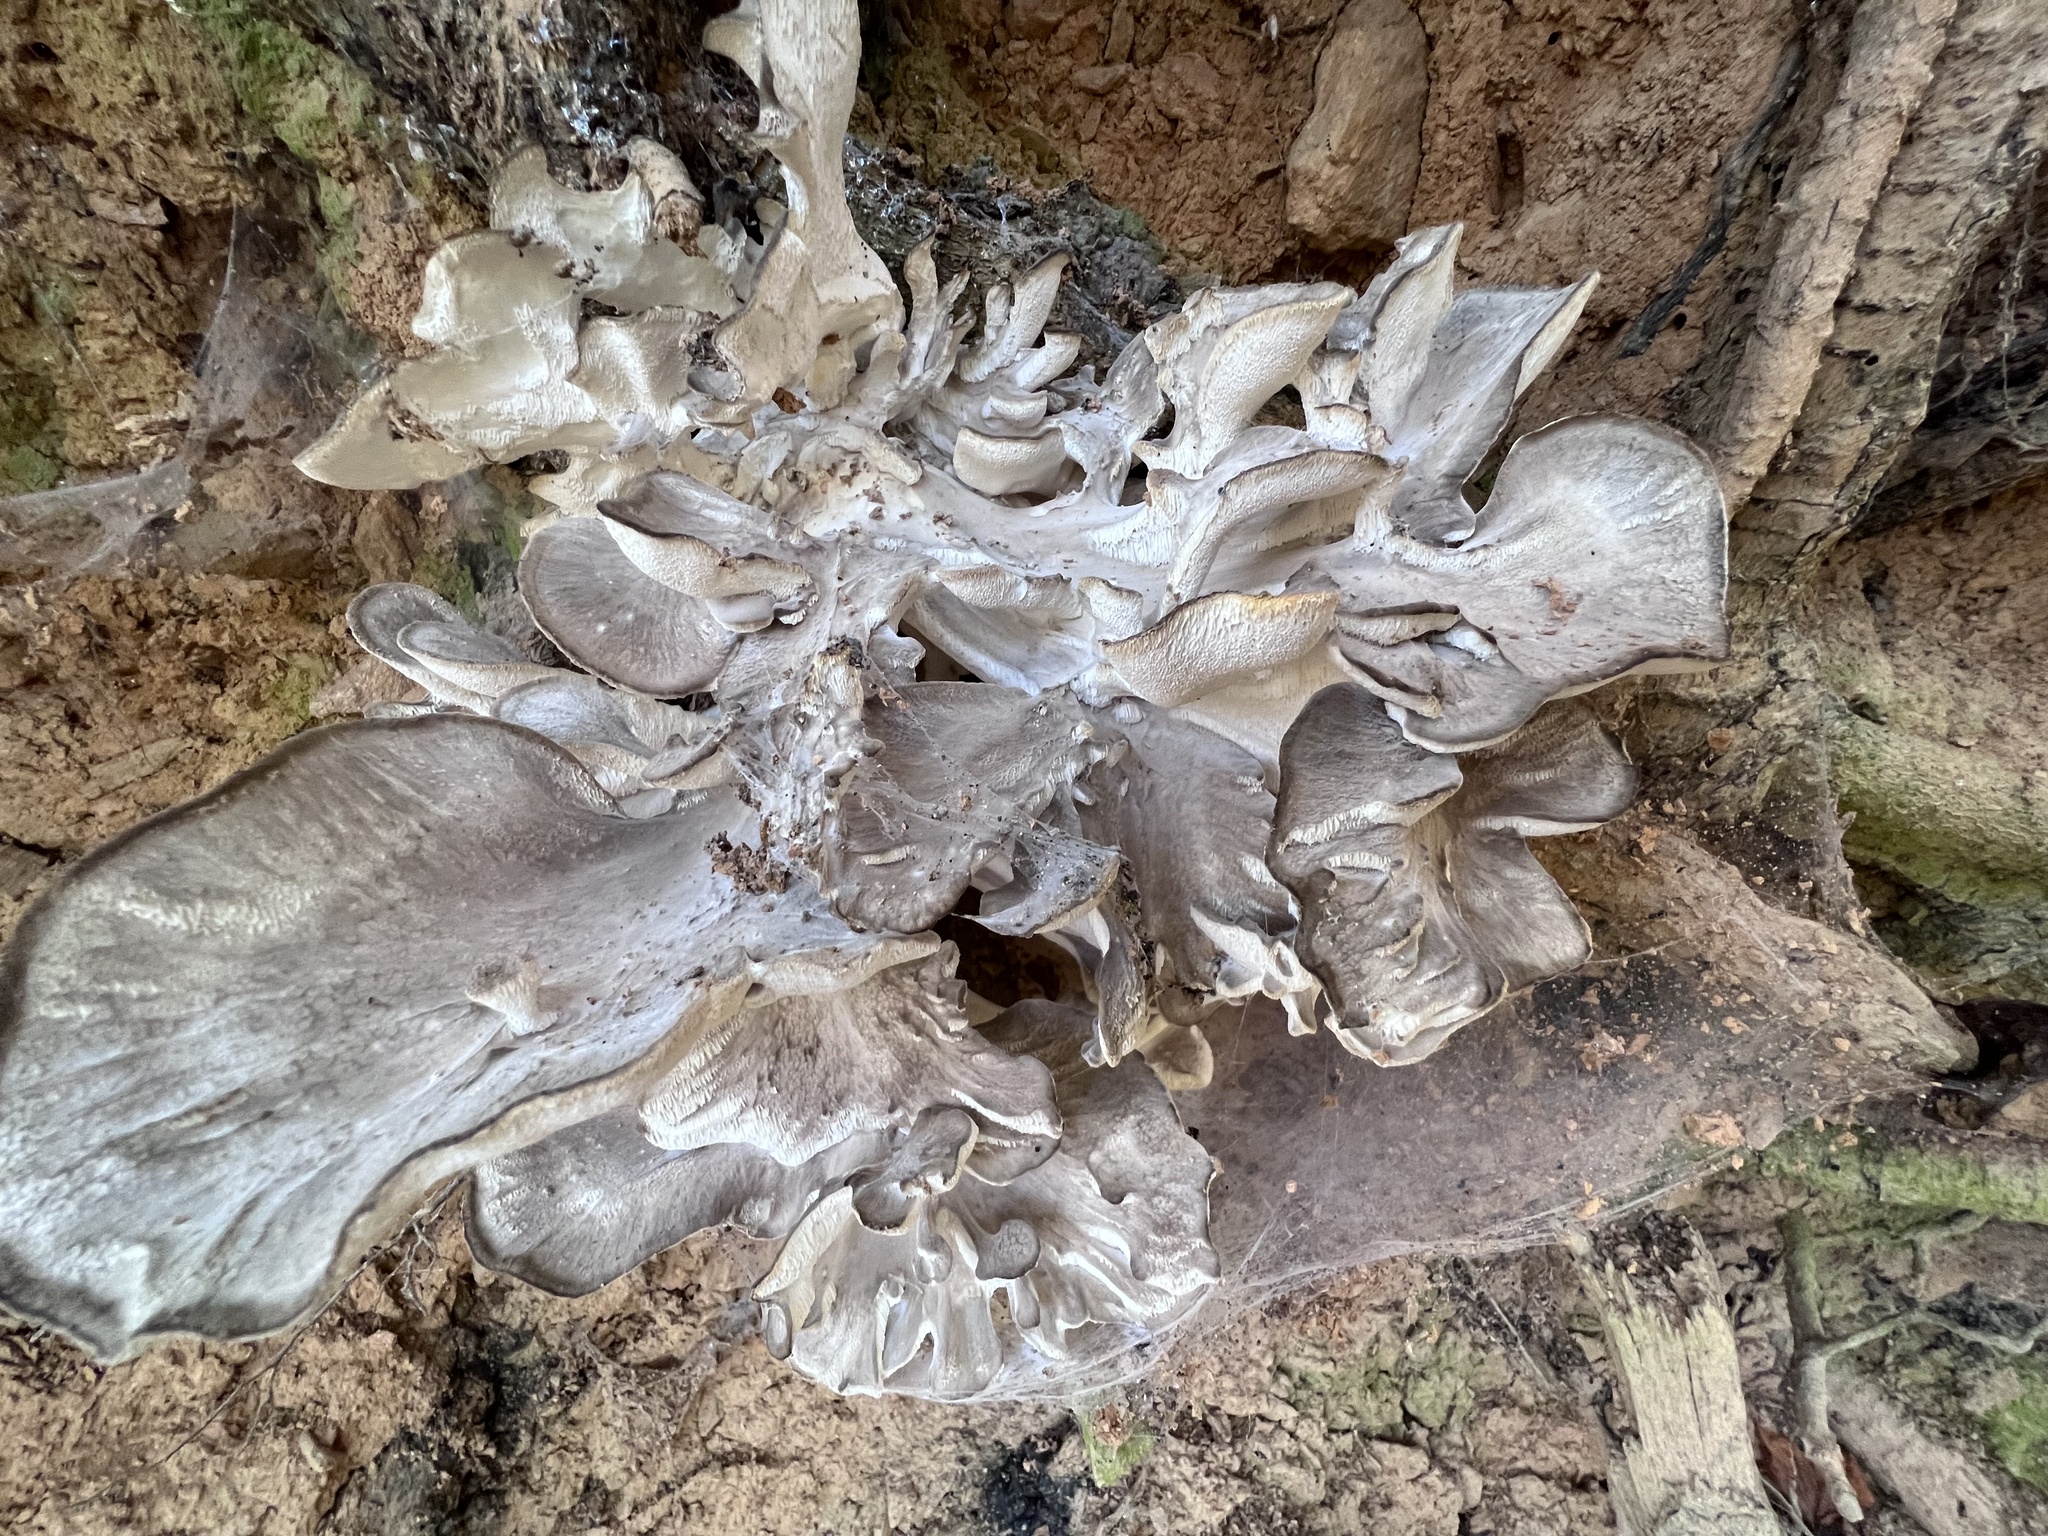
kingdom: Fungi
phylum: Basidiomycota
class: Agaricomycetes
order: Polyporales
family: Grifolaceae
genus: Grifola
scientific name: Grifola frondosa
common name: Hen of the woods
